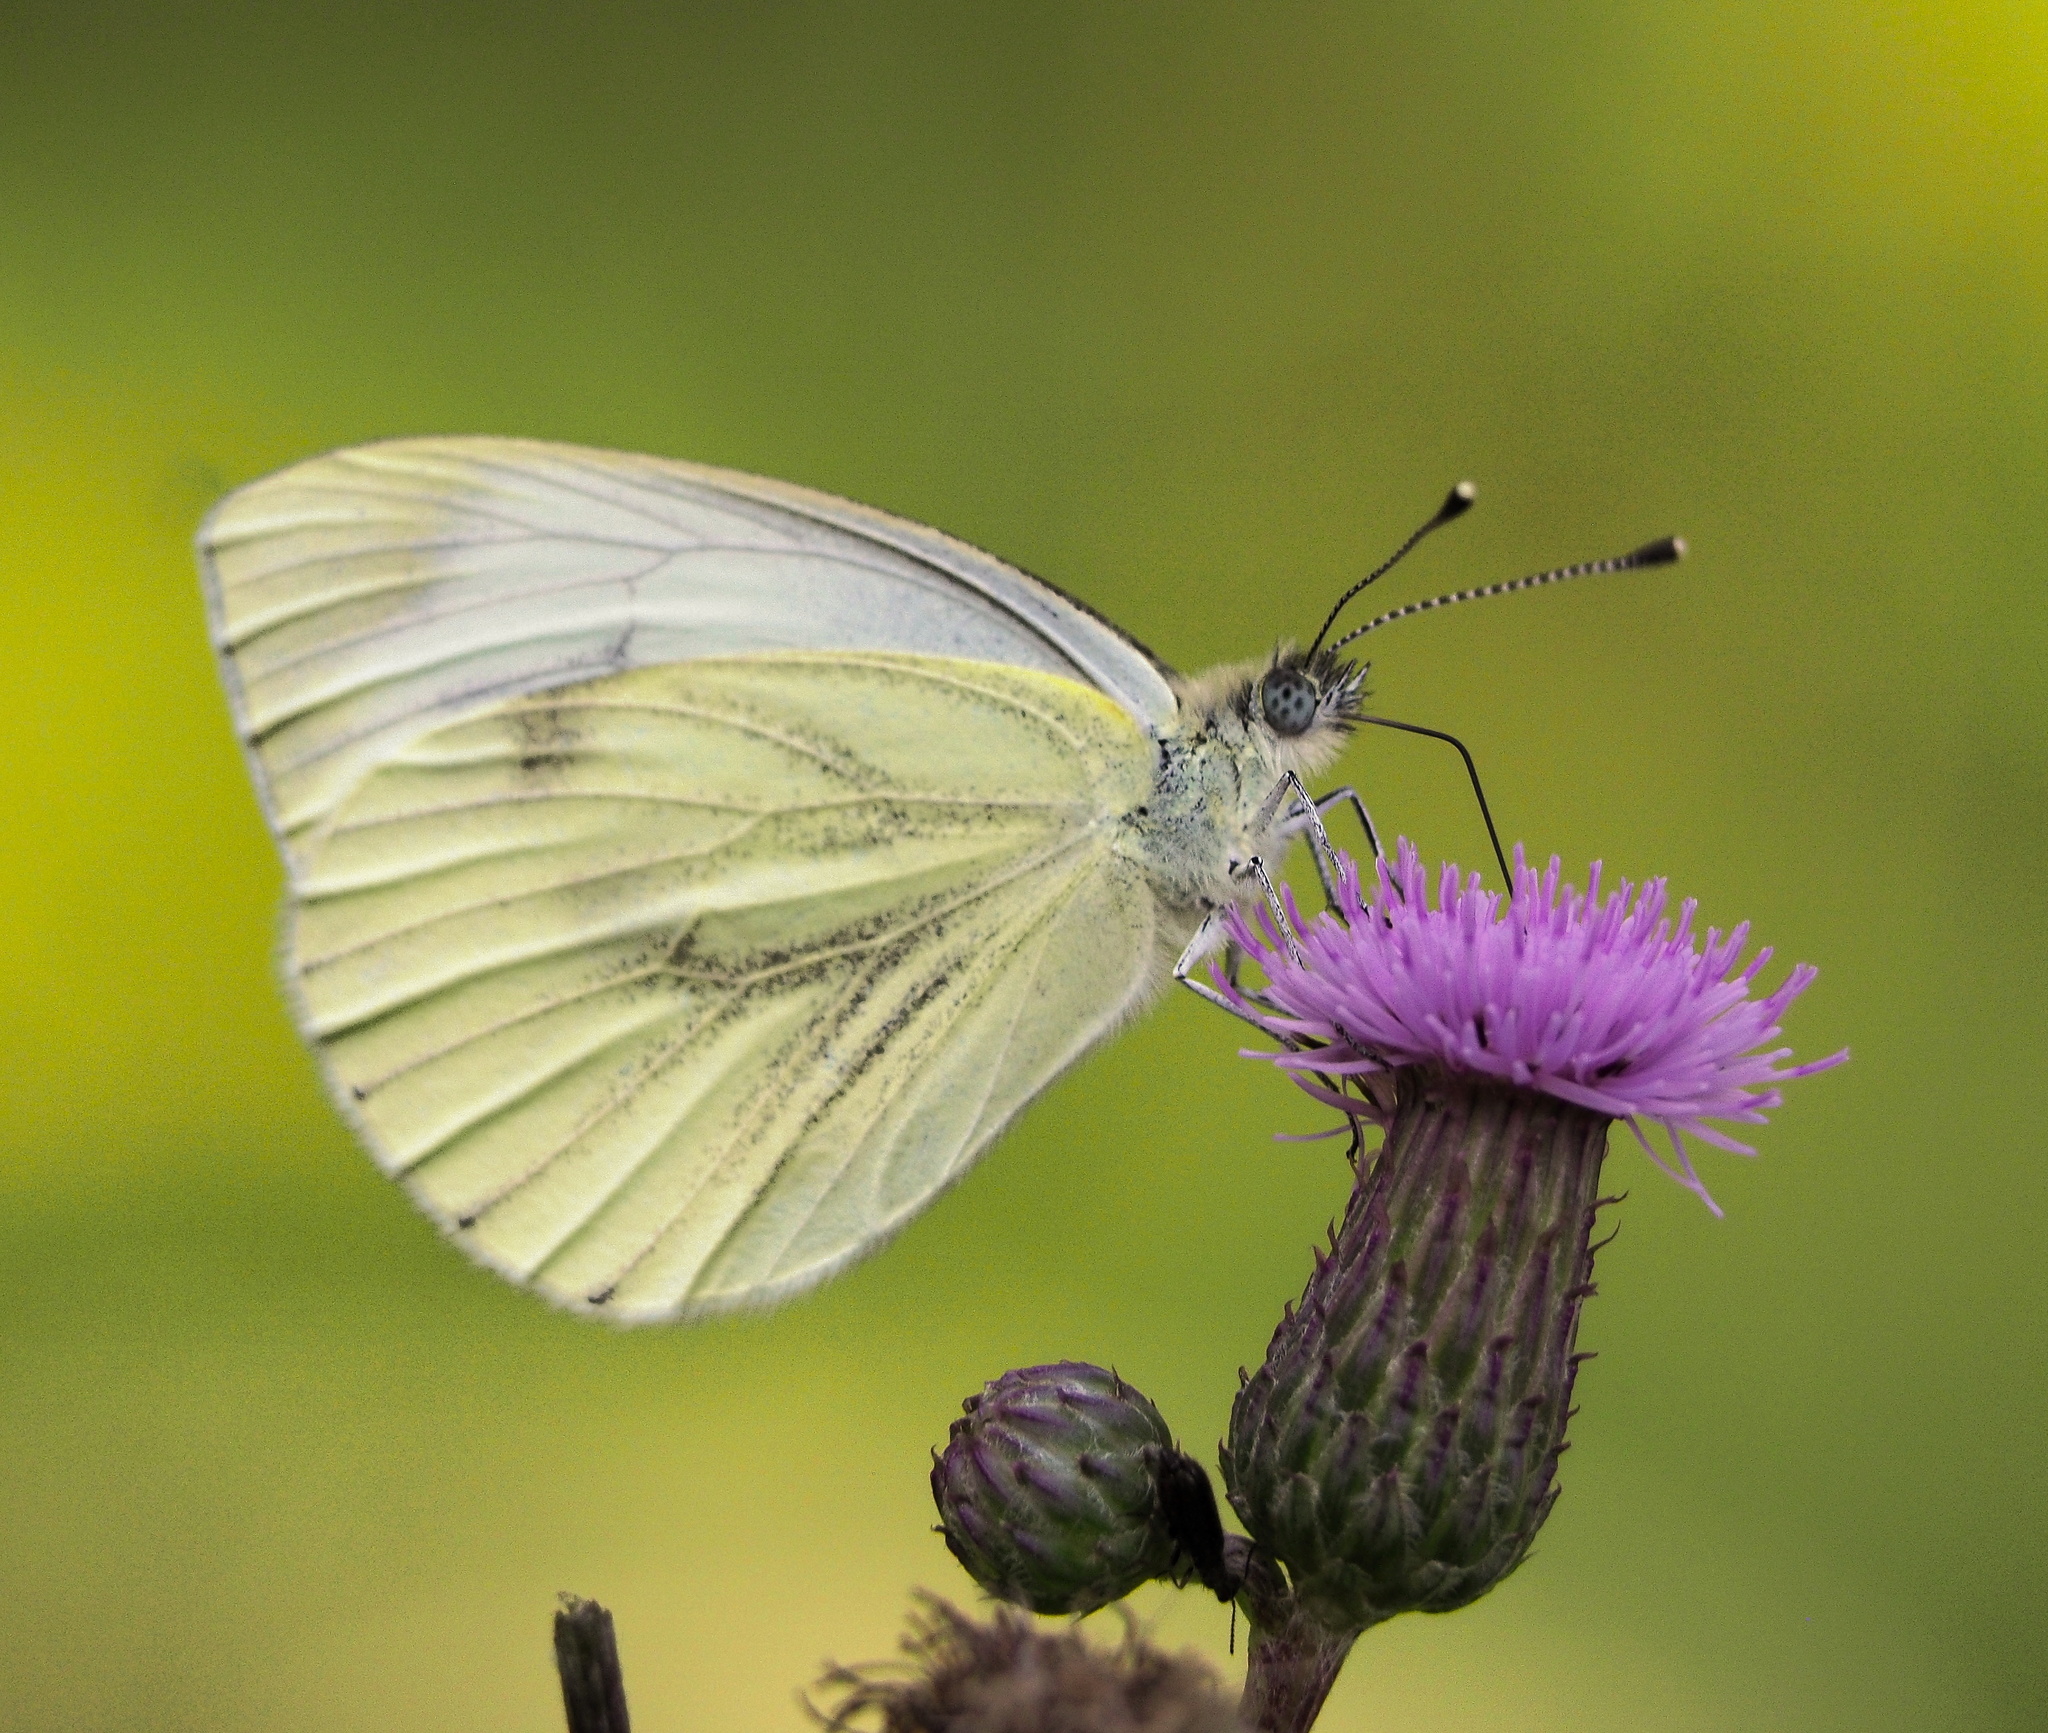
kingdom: Animalia
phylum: Arthropoda
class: Insecta
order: Lepidoptera
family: Pieridae
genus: Pieris
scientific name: Pieris napi
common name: Green-veined white
